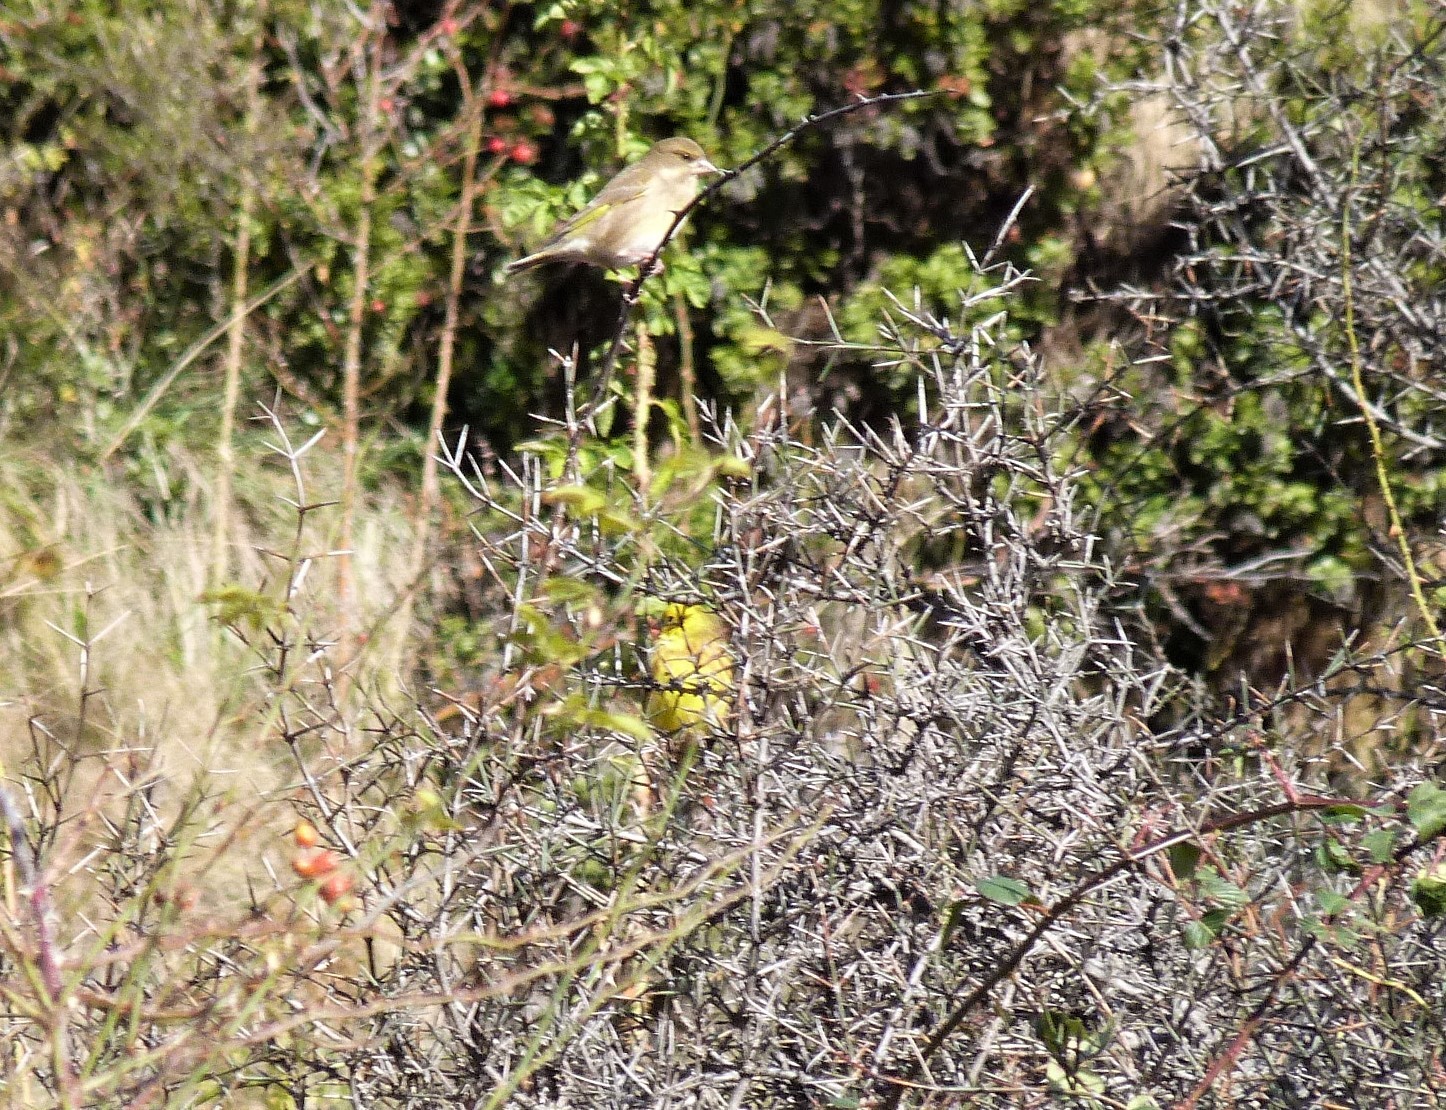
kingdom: Plantae
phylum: Tracheophyta
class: Liliopsida
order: Poales
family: Poaceae
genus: Chloris
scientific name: Chloris chloris
